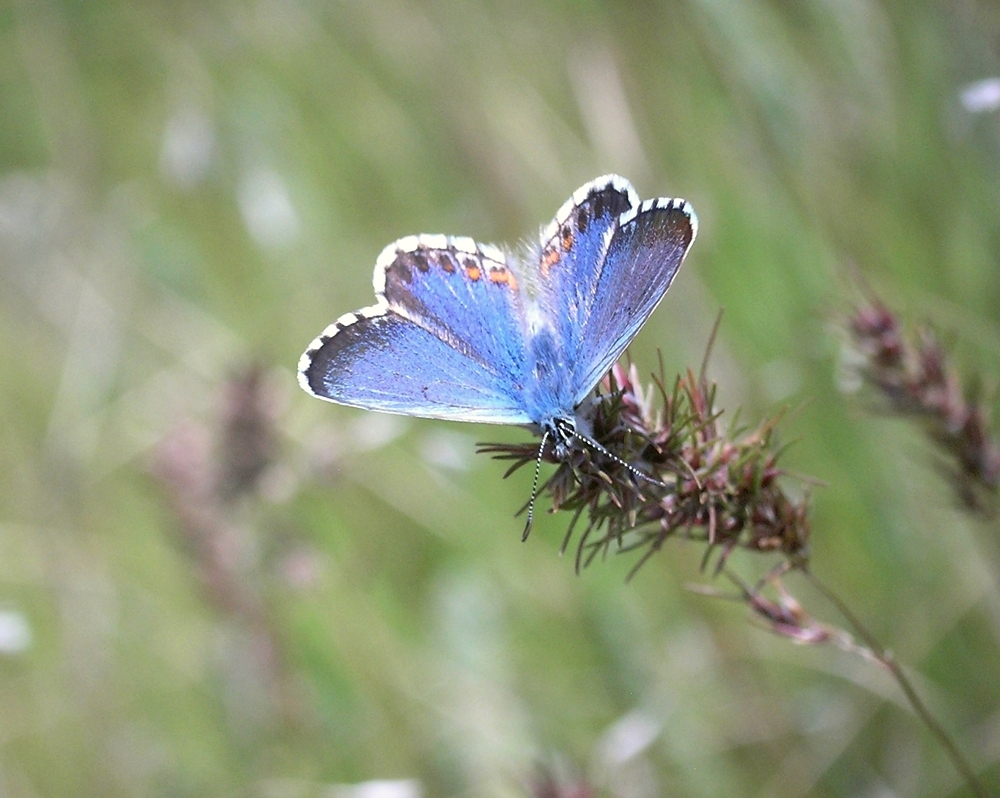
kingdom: Animalia
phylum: Arthropoda
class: Insecta
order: Lepidoptera
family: Lycaenidae
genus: Pseudophilotes
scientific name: Pseudophilotes bavius
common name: Bavius blue
